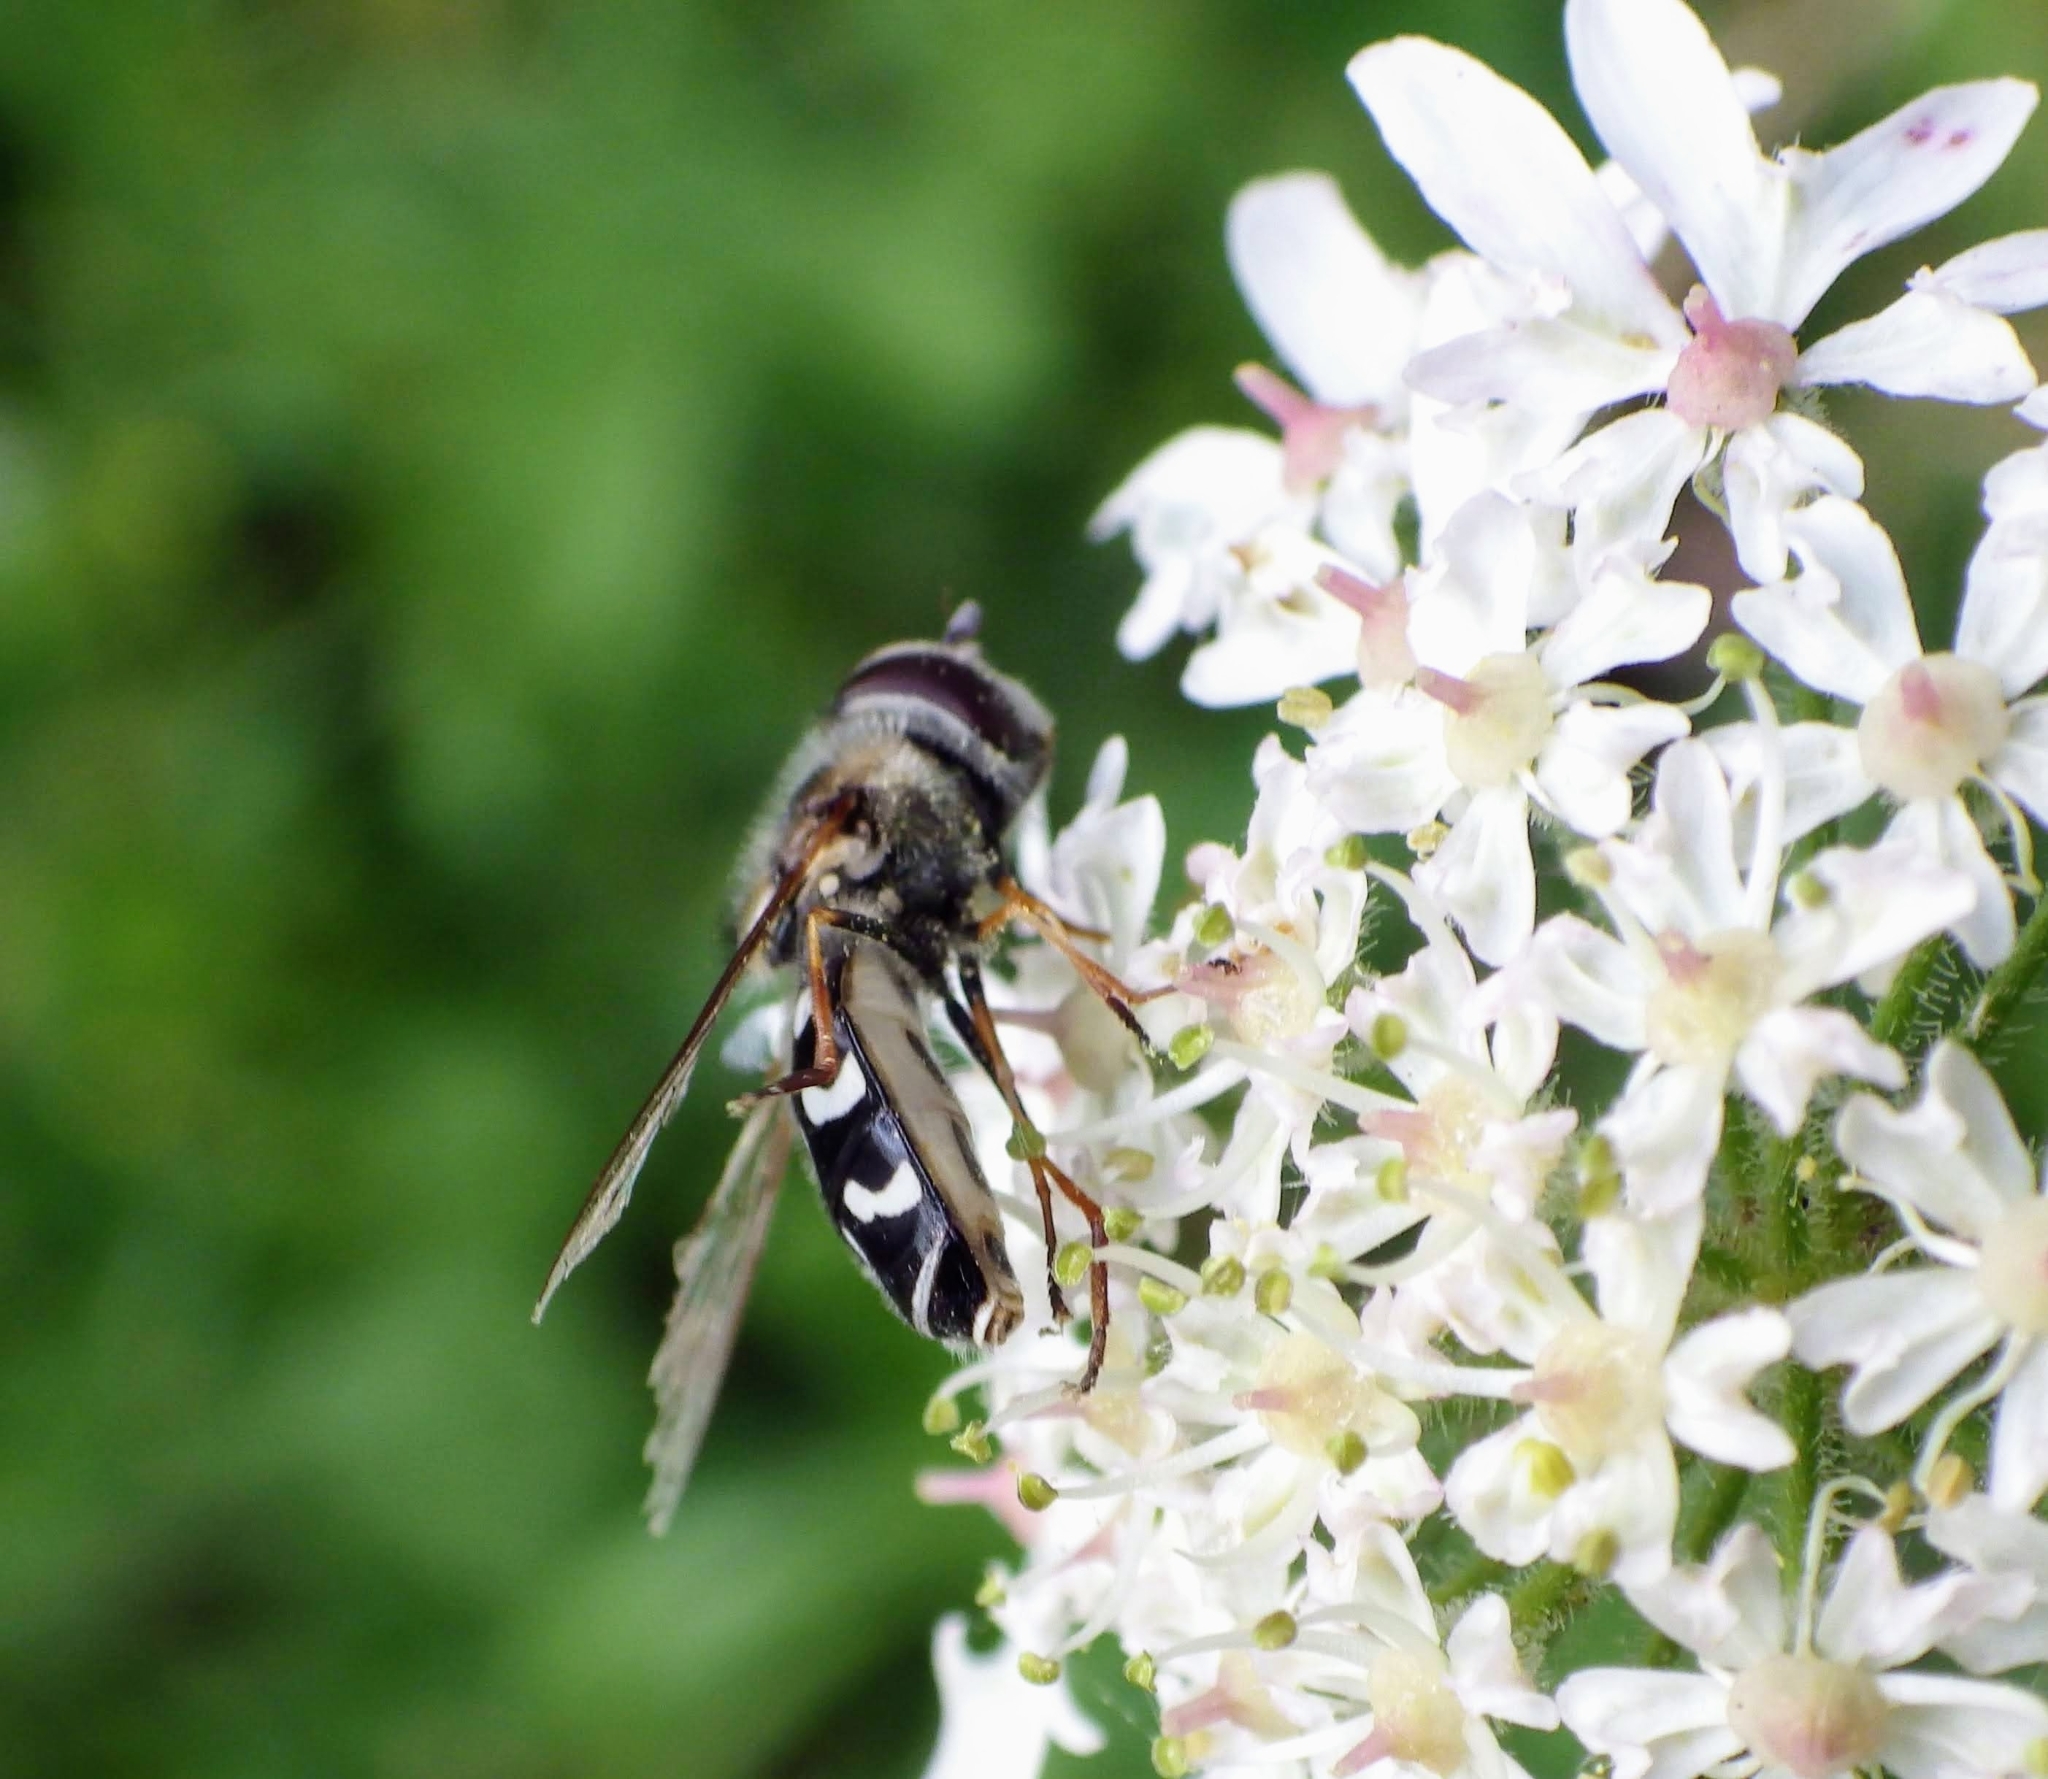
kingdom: Animalia
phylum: Arthropoda
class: Insecta
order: Diptera
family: Syrphidae
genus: Scaeva
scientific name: Scaeva pyrastri
